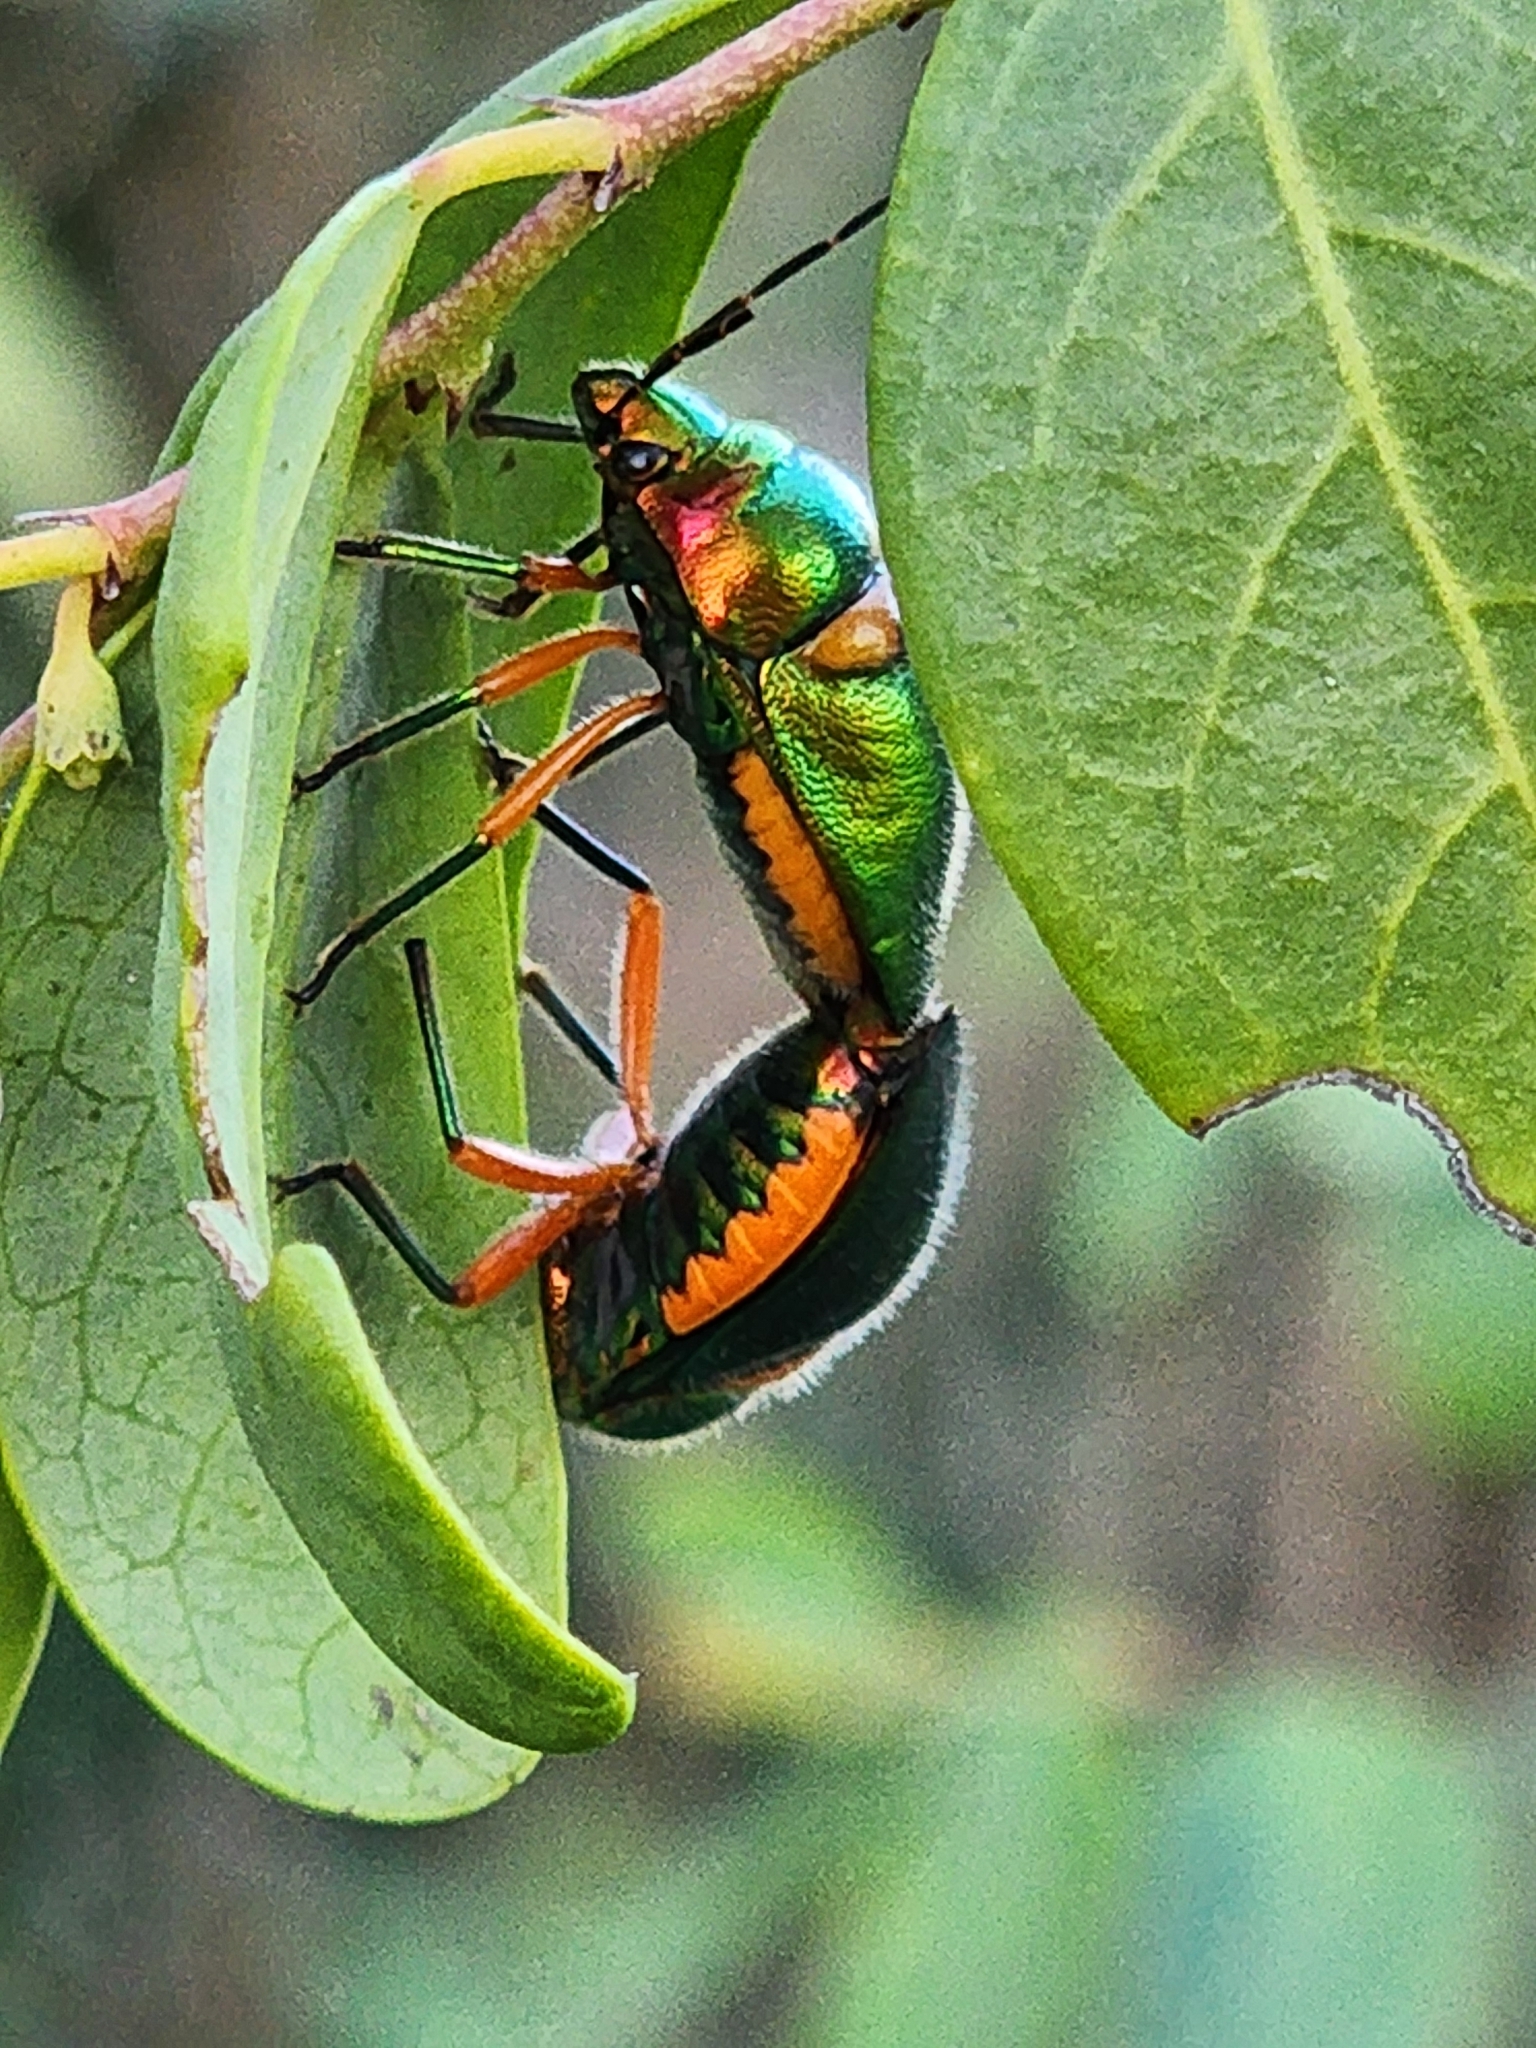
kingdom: Animalia
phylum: Arthropoda
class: Insecta
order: Hemiptera
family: Scutelleridae
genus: Lampromicra
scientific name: Lampromicra senator
